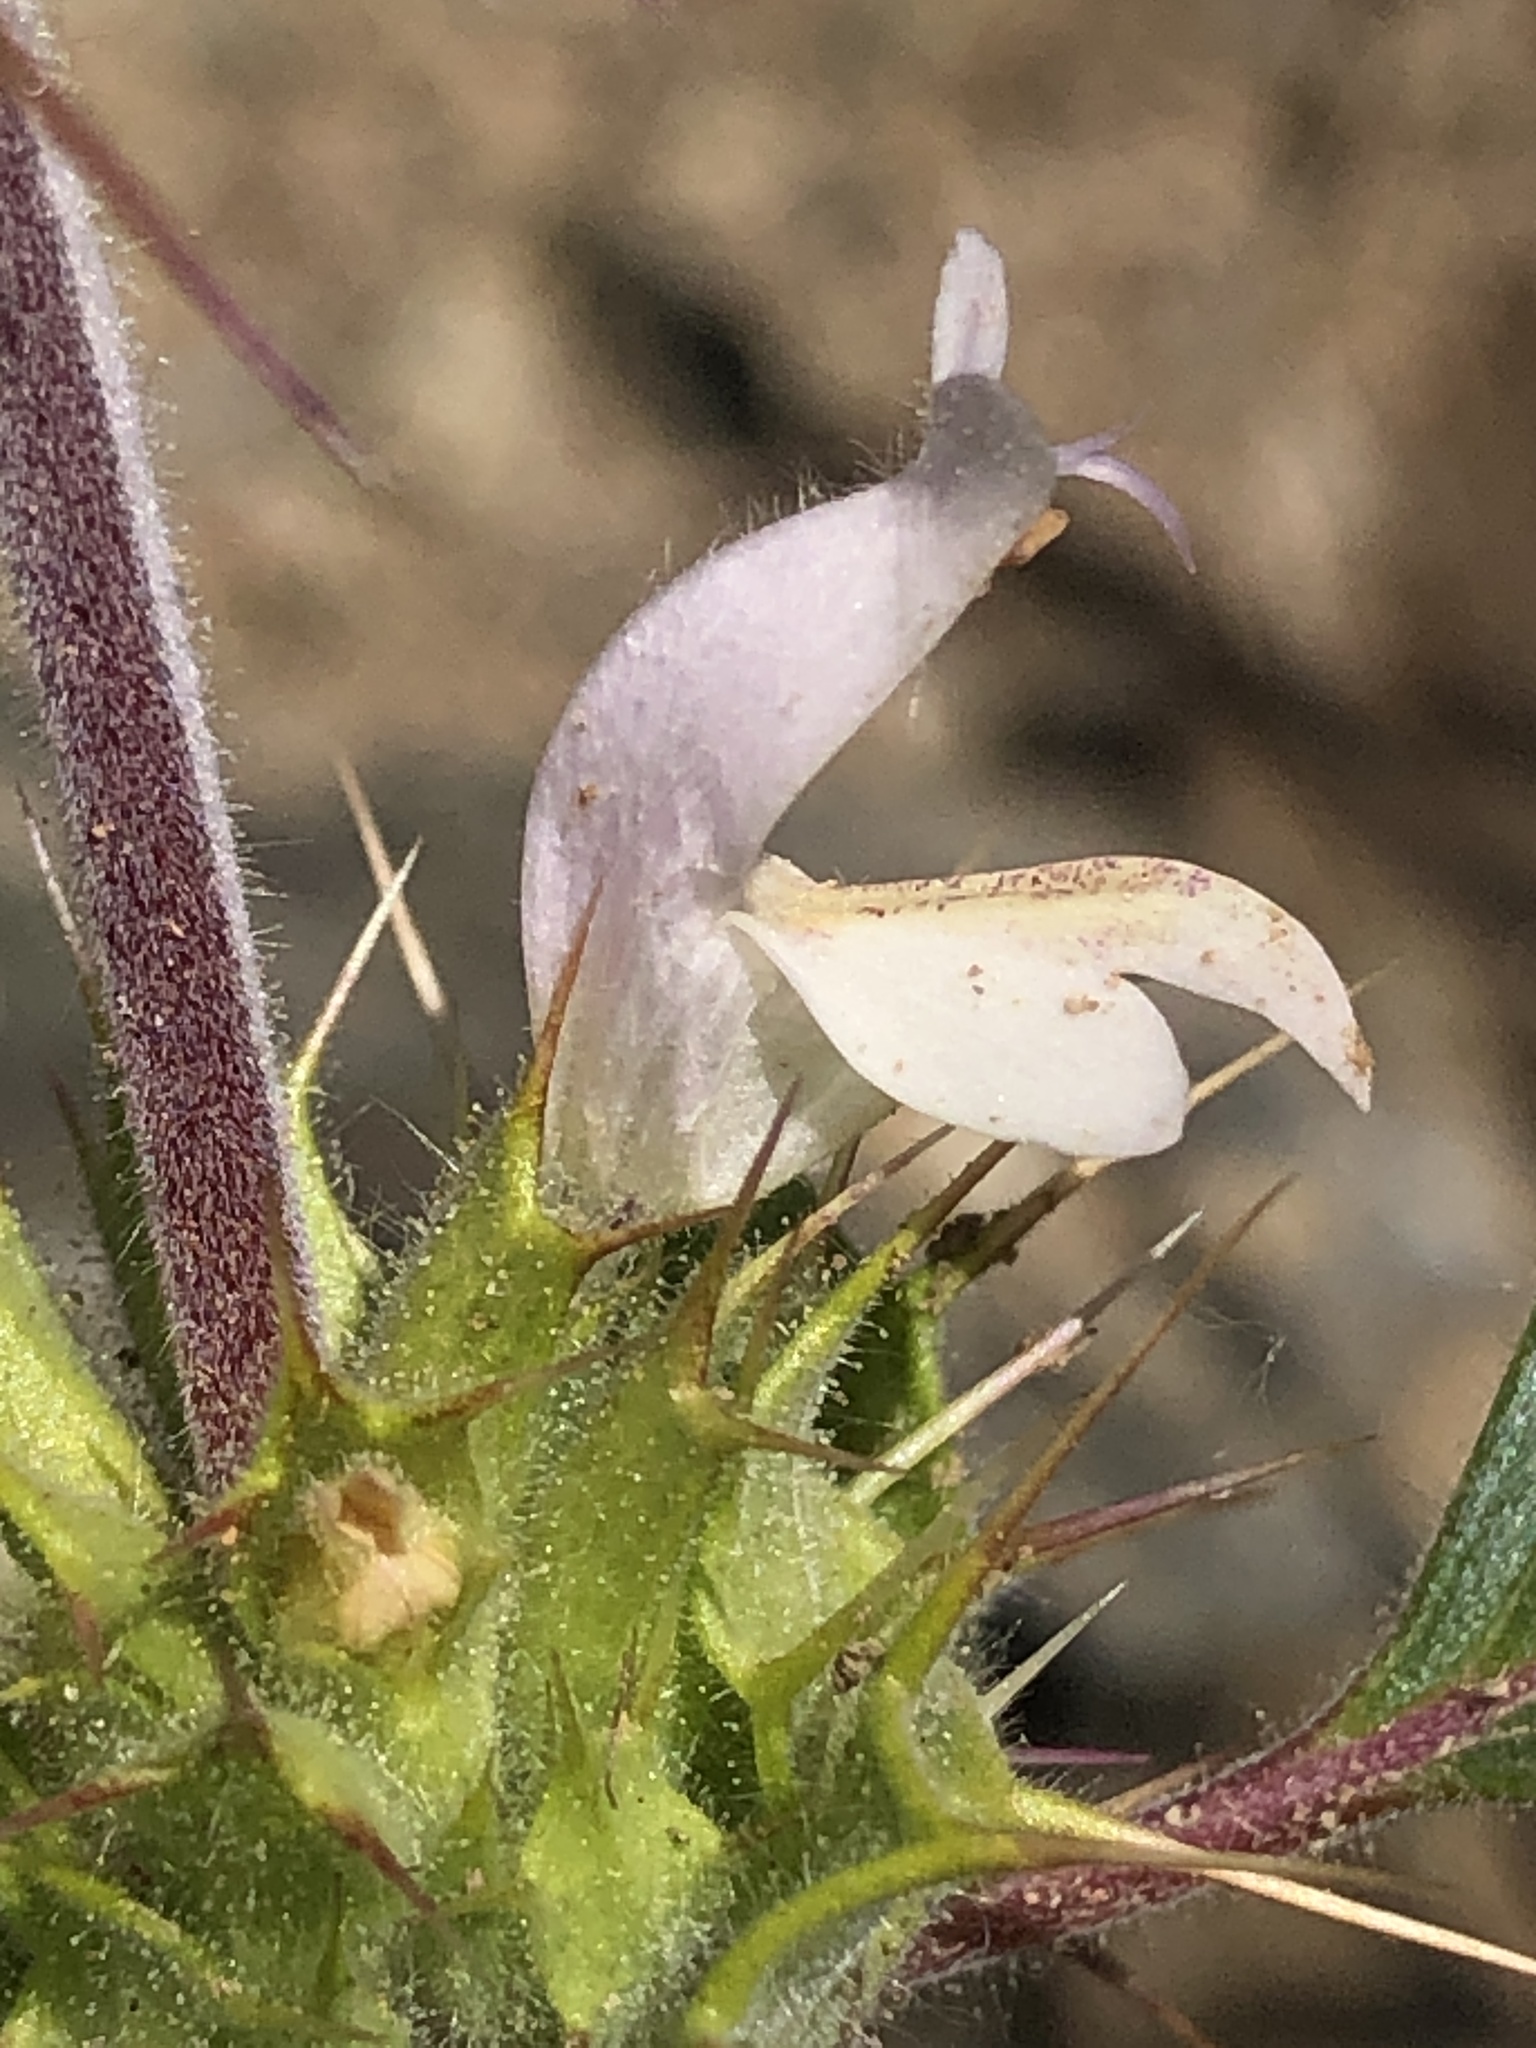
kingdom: Plantae
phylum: Tracheophyta
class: Magnoliopsida
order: Lamiales
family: Lamiaceae
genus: Acanthomintha
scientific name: Acanthomintha lanceolata
